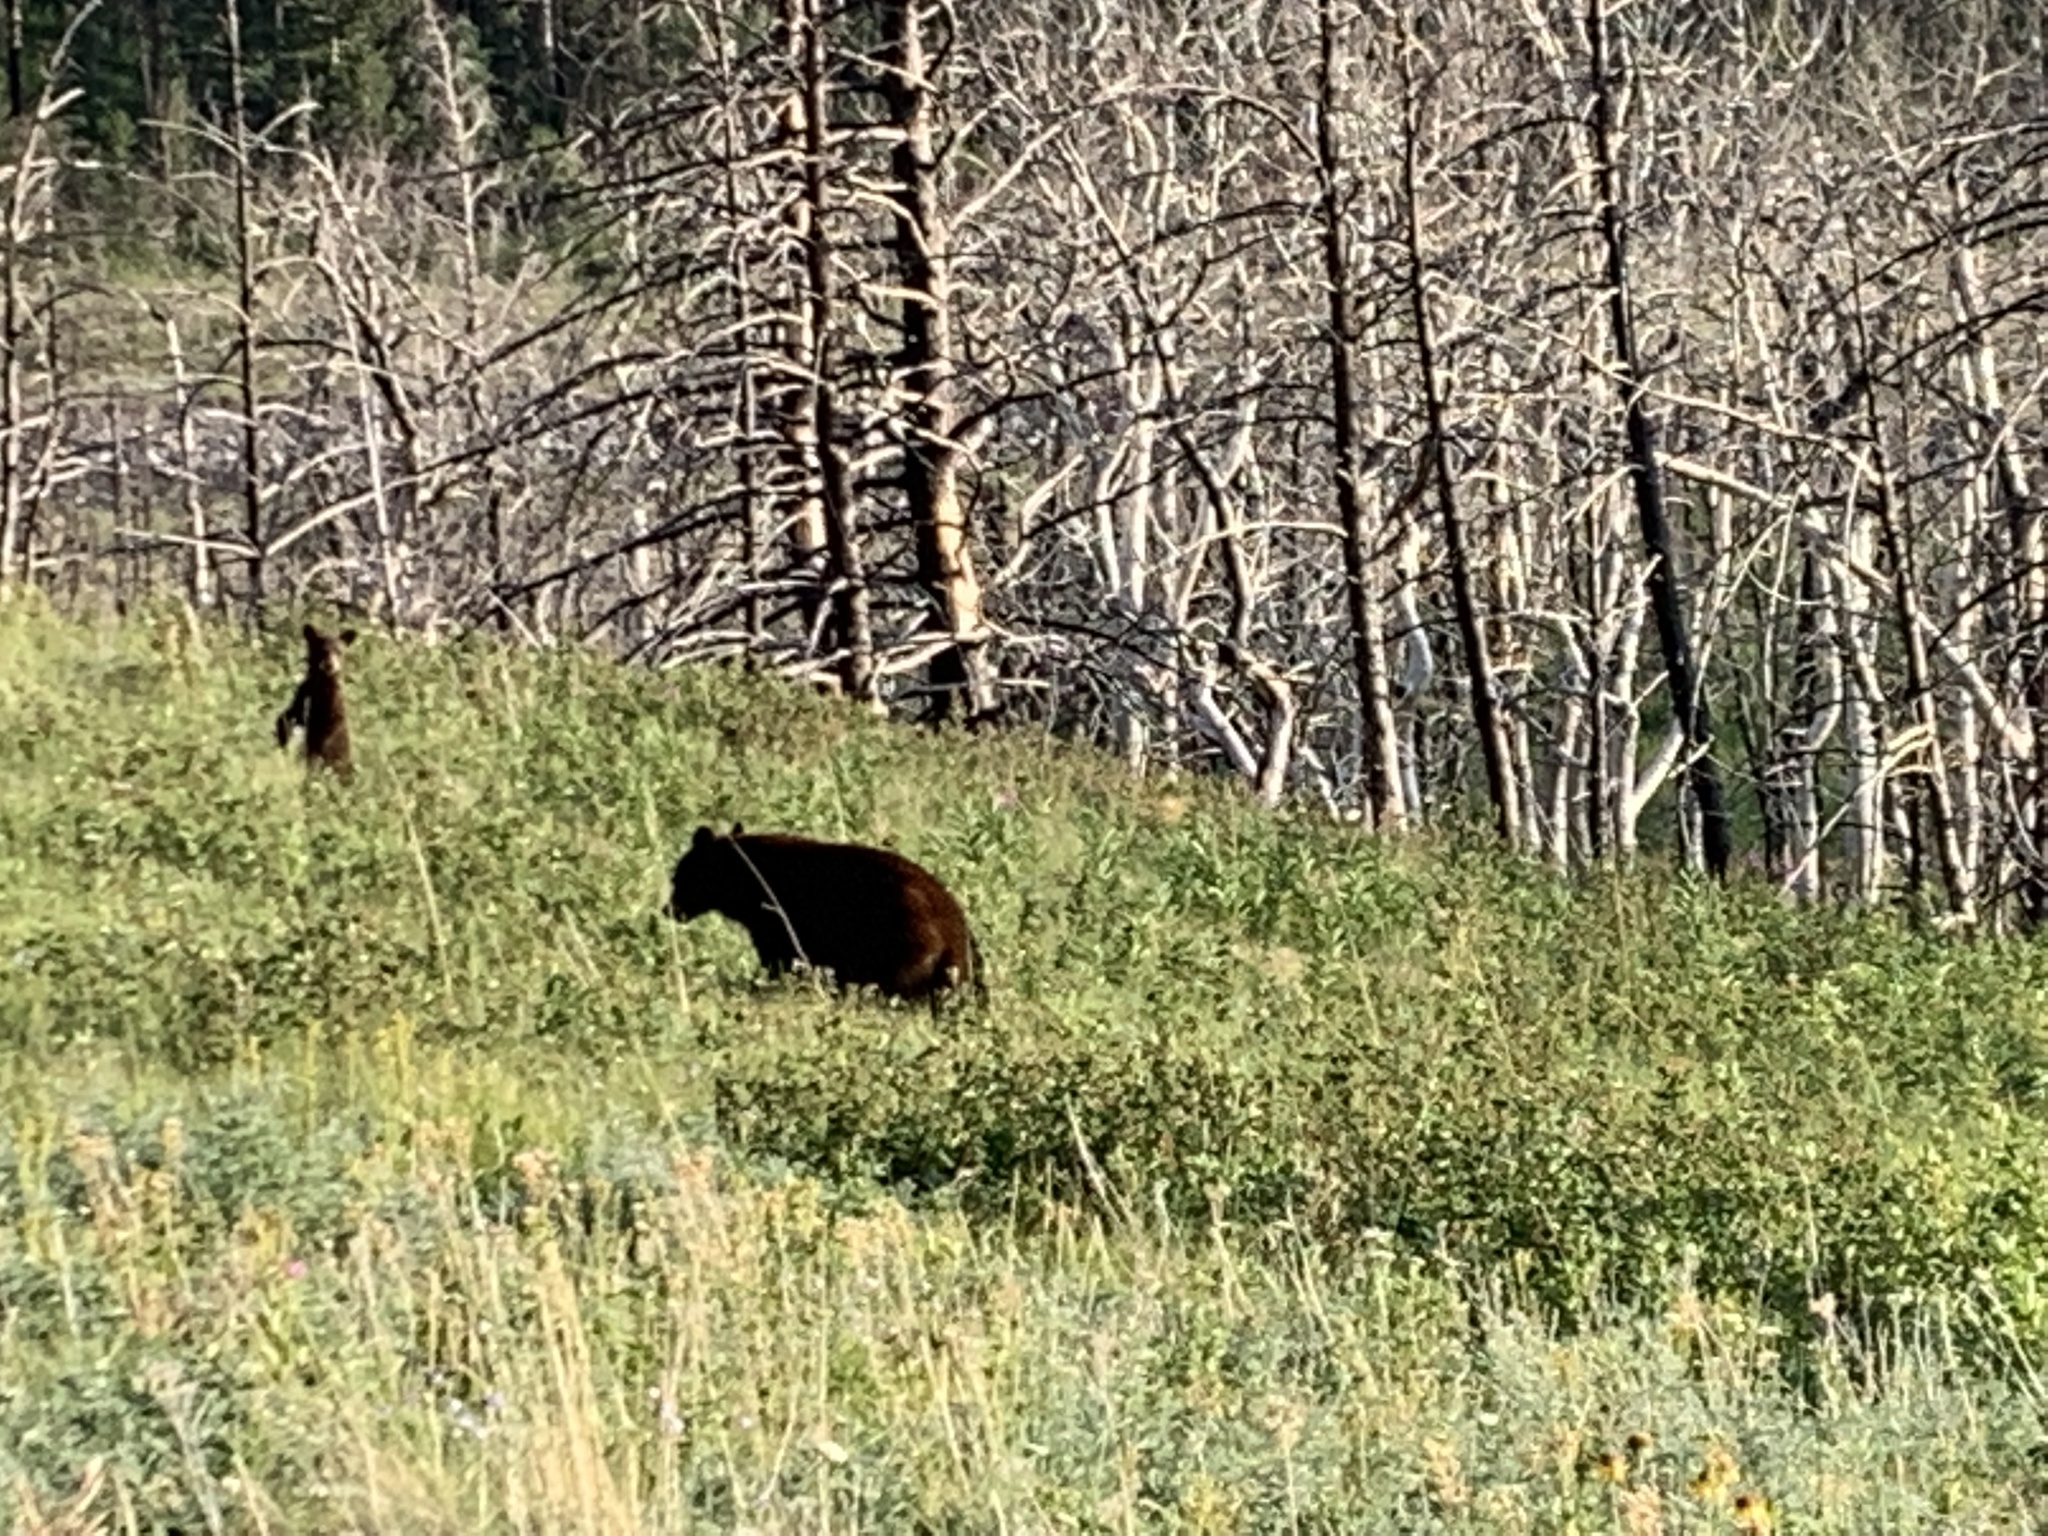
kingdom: Animalia
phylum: Chordata
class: Mammalia
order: Carnivora
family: Ursidae
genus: Ursus
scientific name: Ursus americanus
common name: American black bear
